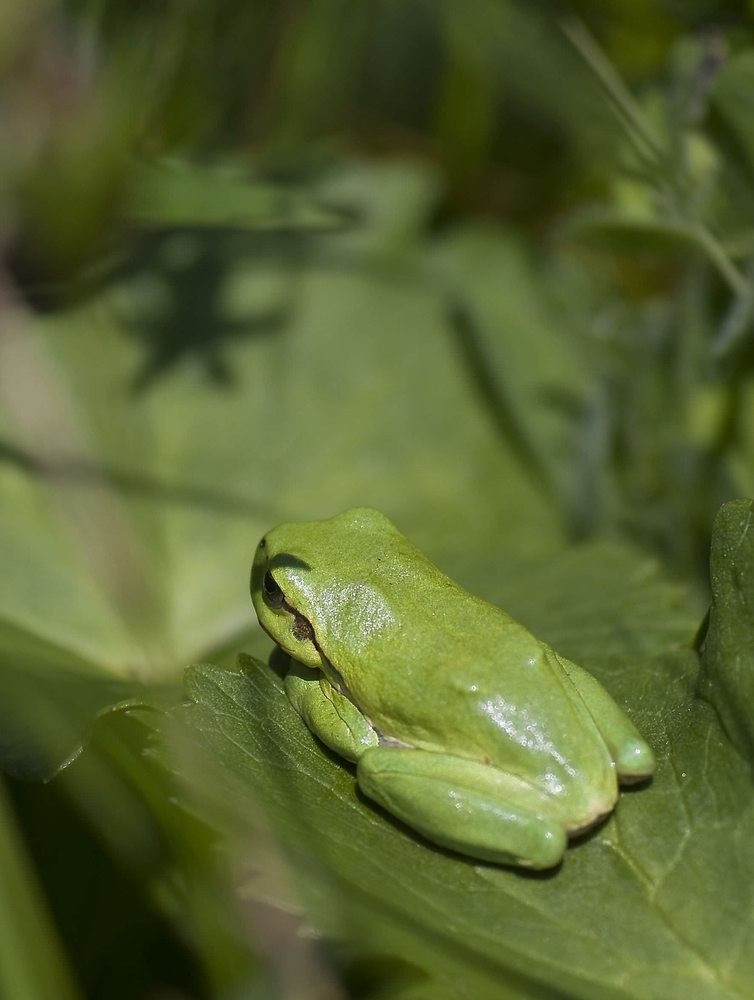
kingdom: Animalia
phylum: Chordata
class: Amphibia
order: Anura
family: Hylidae
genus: Hyla
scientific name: Hyla arborea
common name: Common tree frog
